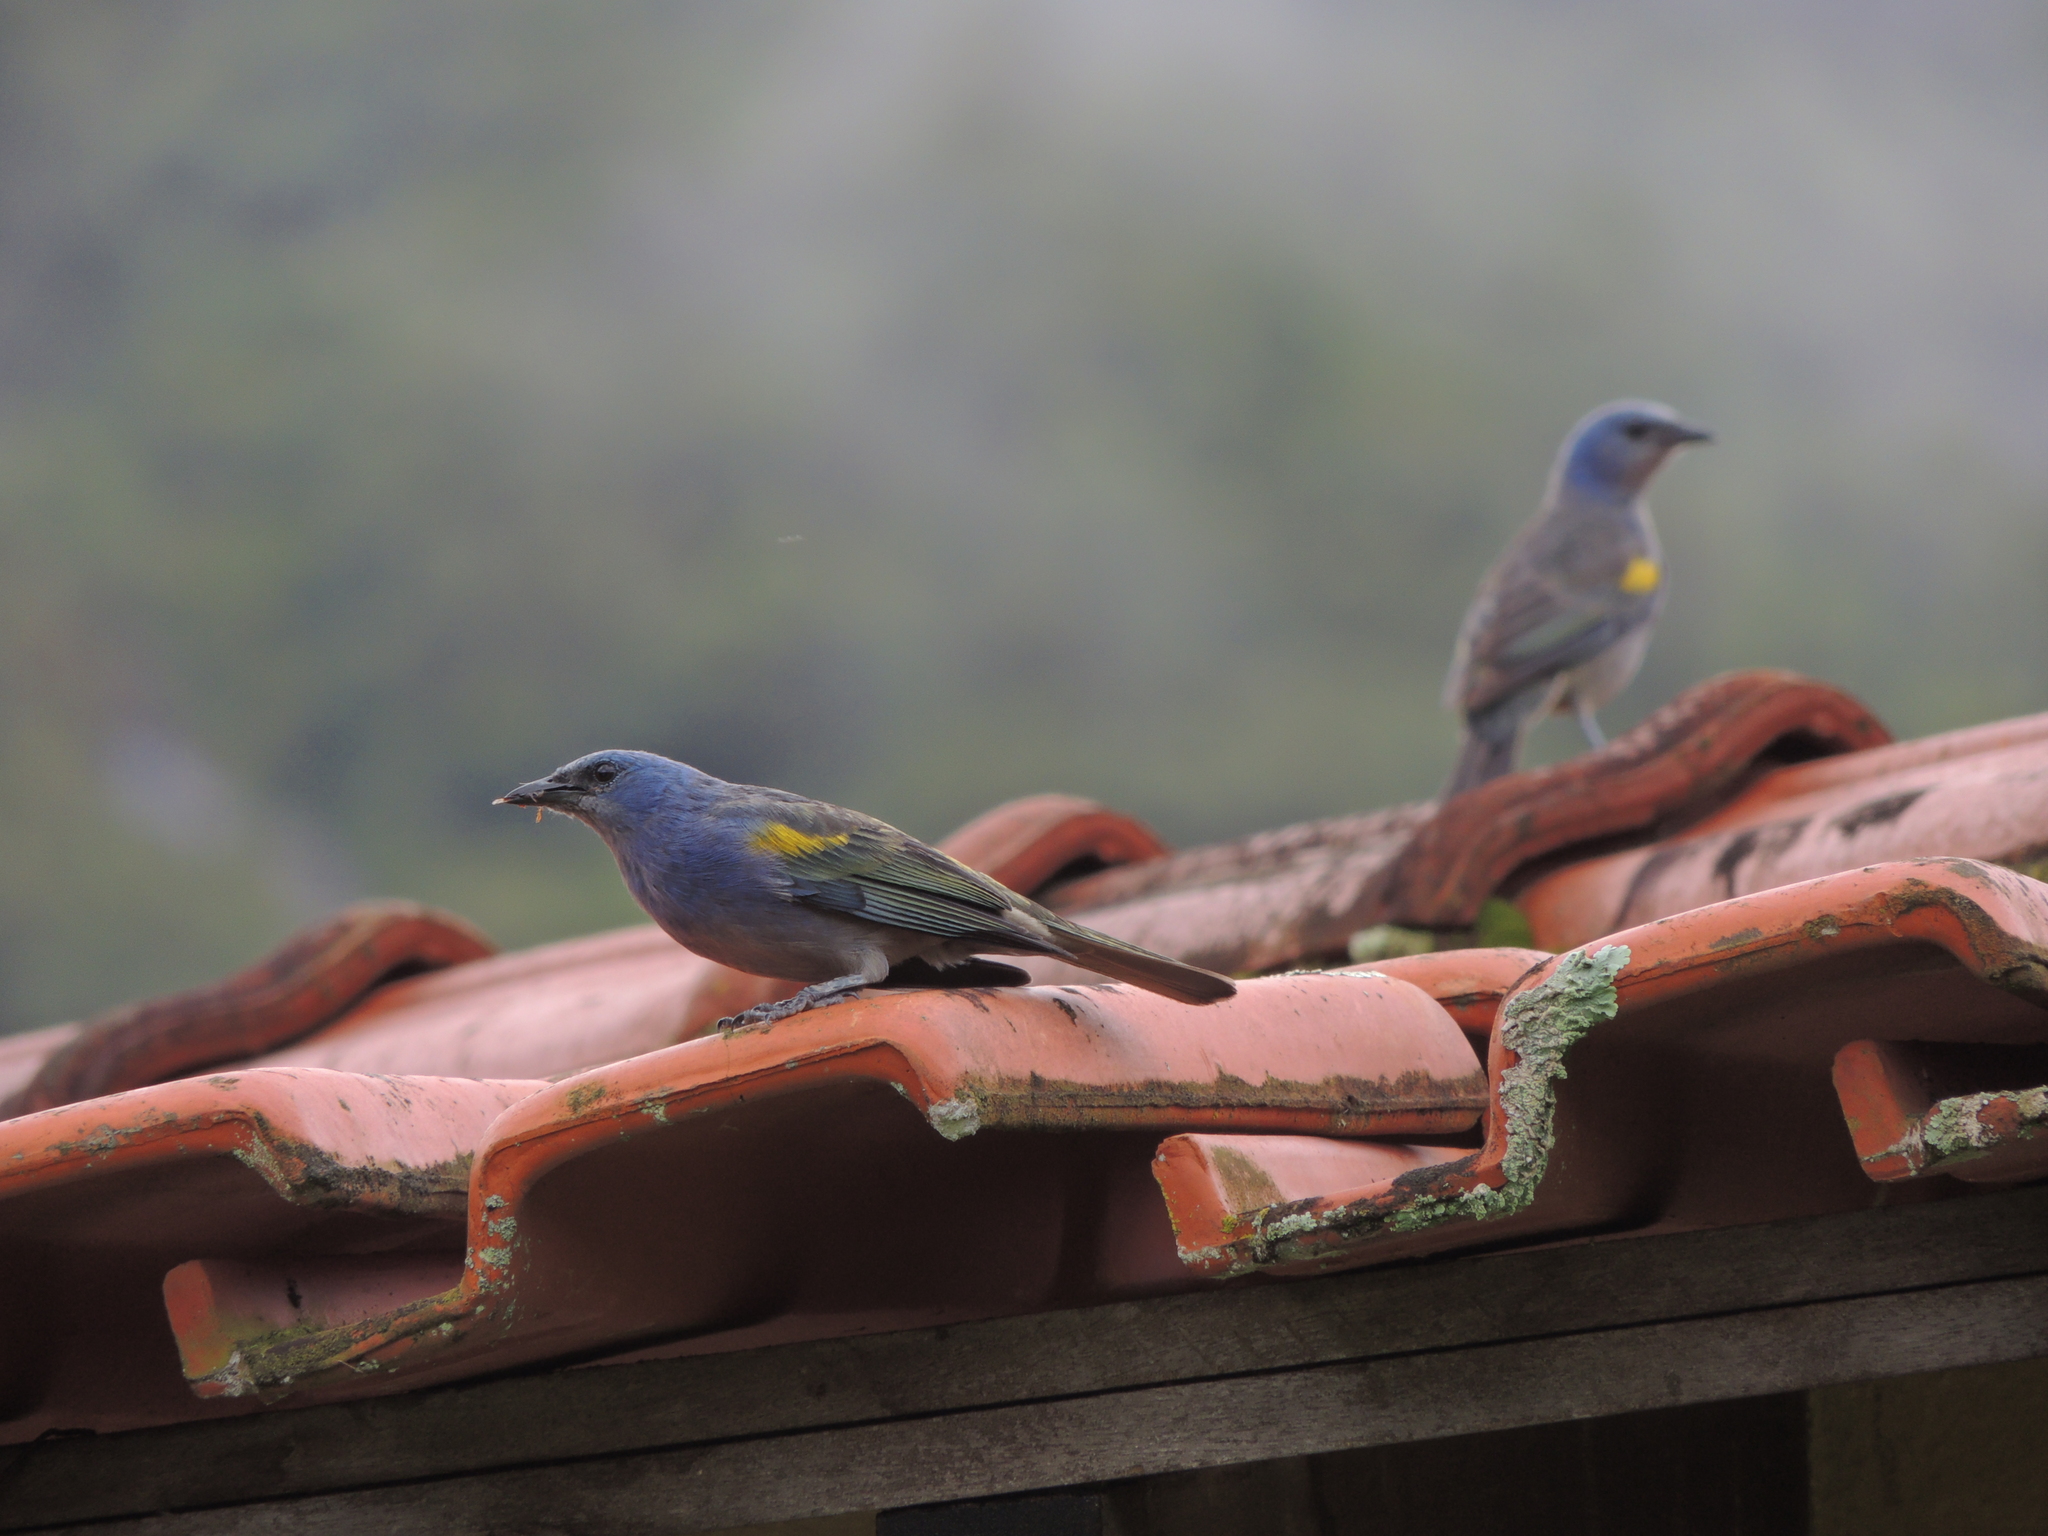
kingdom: Animalia
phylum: Chordata
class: Aves
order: Passeriformes
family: Thraupidae
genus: Thraupis
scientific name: Thraupis ornata
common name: Golden-chevroned tanager
